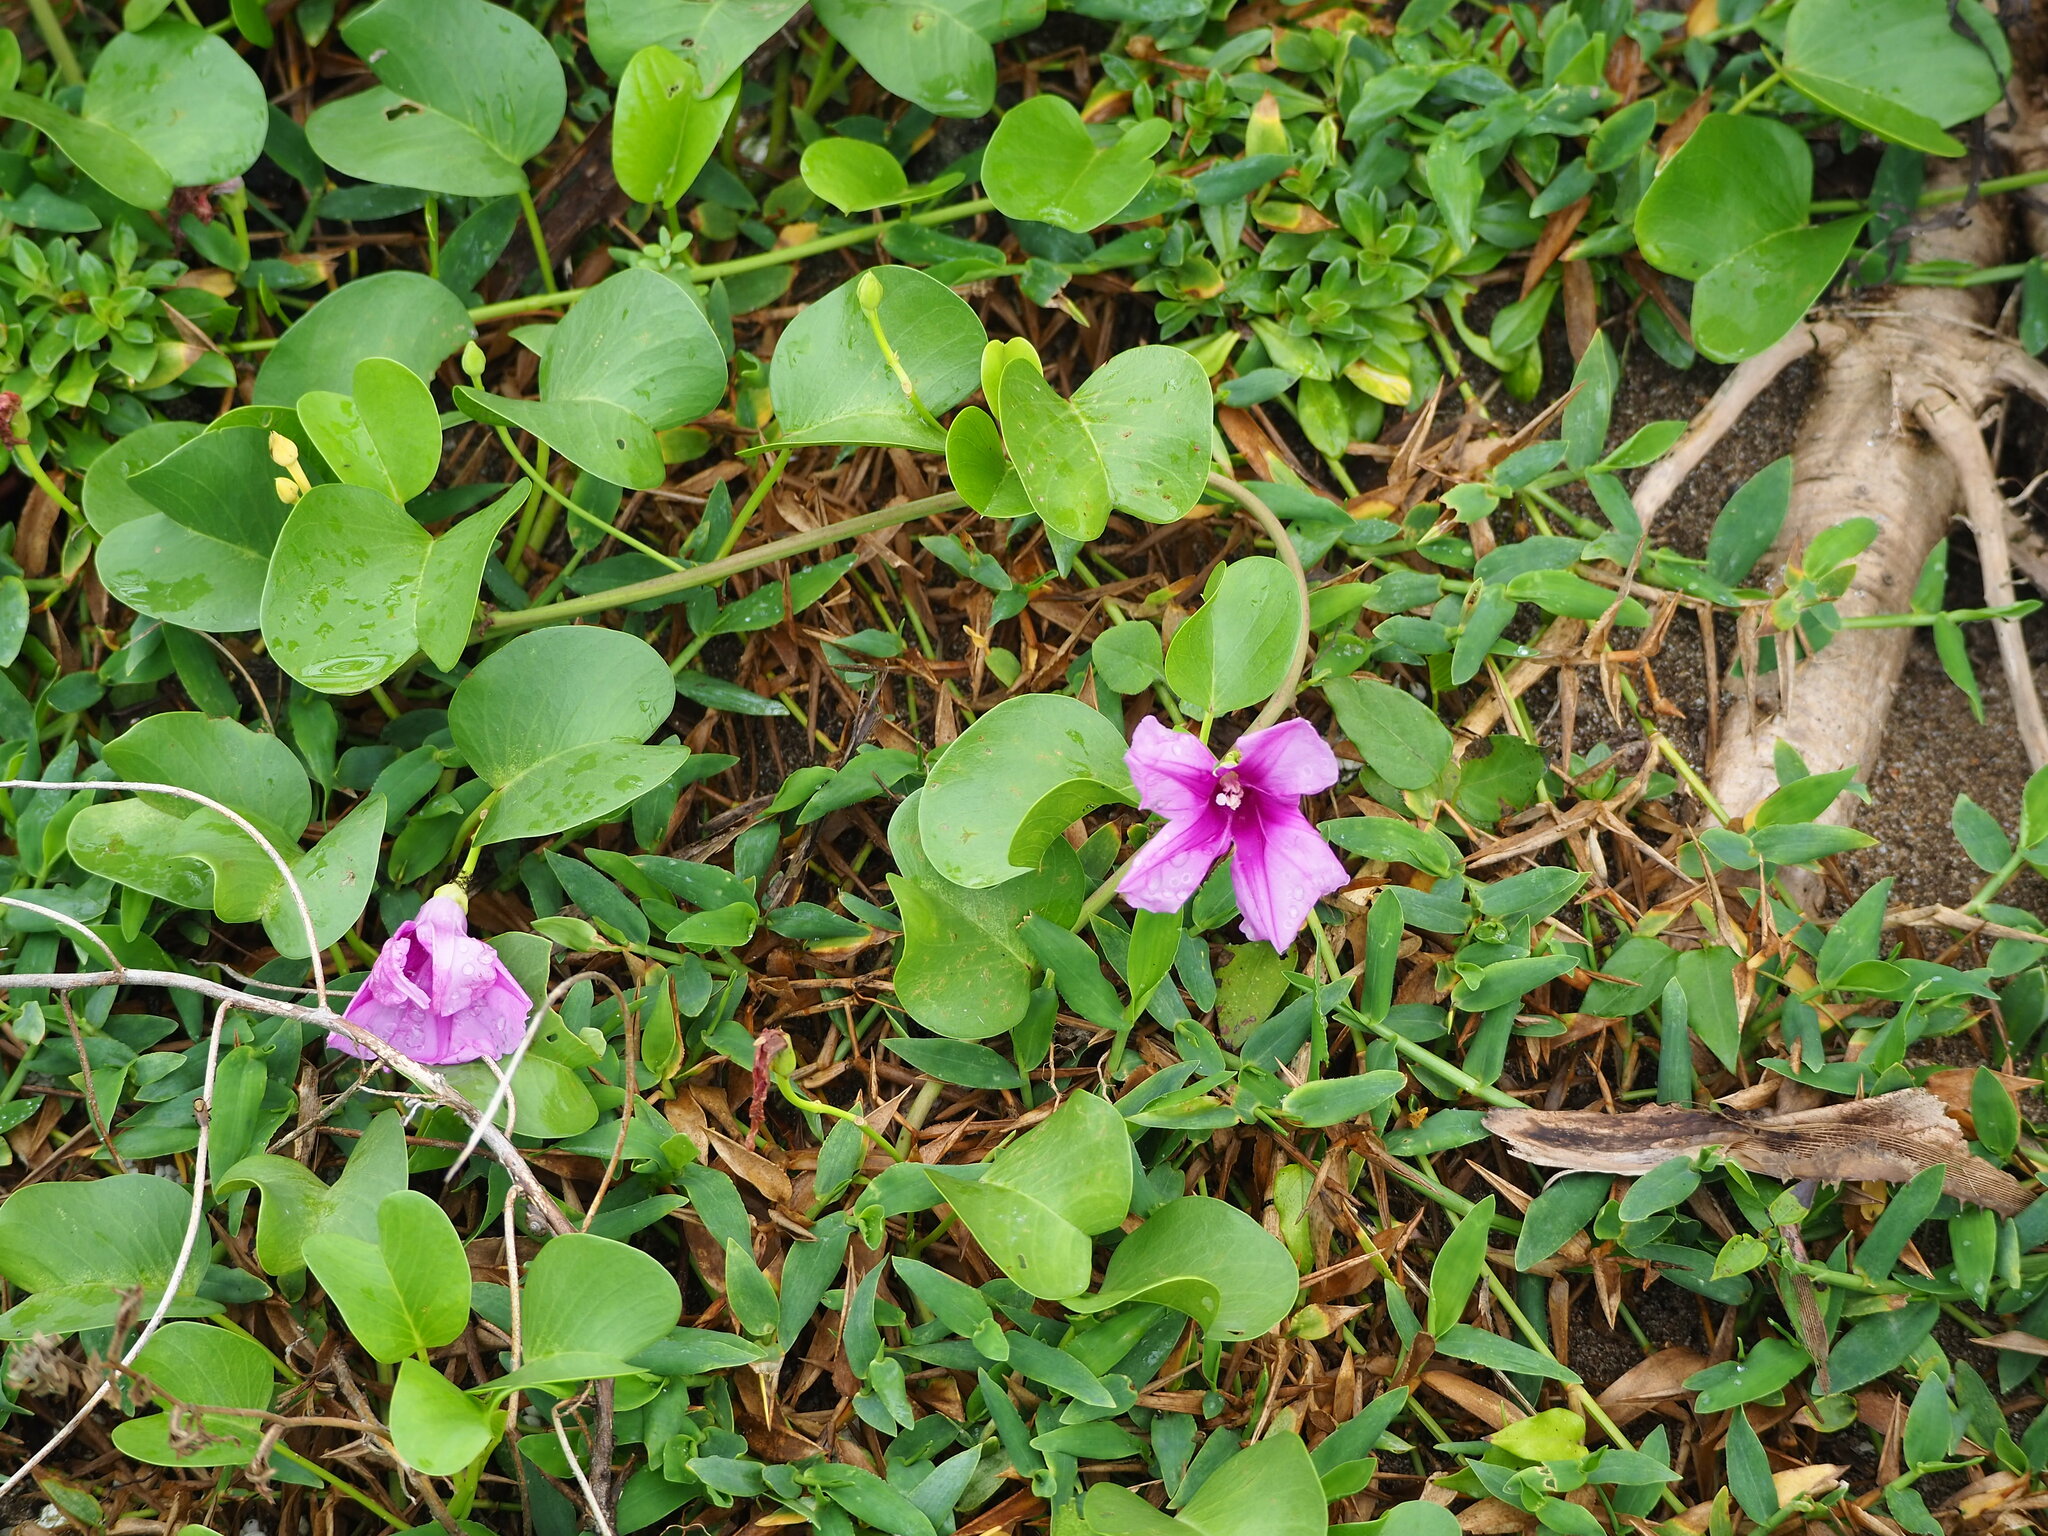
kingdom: Plantae
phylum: Tracheophyta
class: Magnoliopsida
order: Solanales
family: Convolvulaceae
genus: Ipomoea
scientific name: Ipomoea pes-caprae
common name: Beach morning glory
